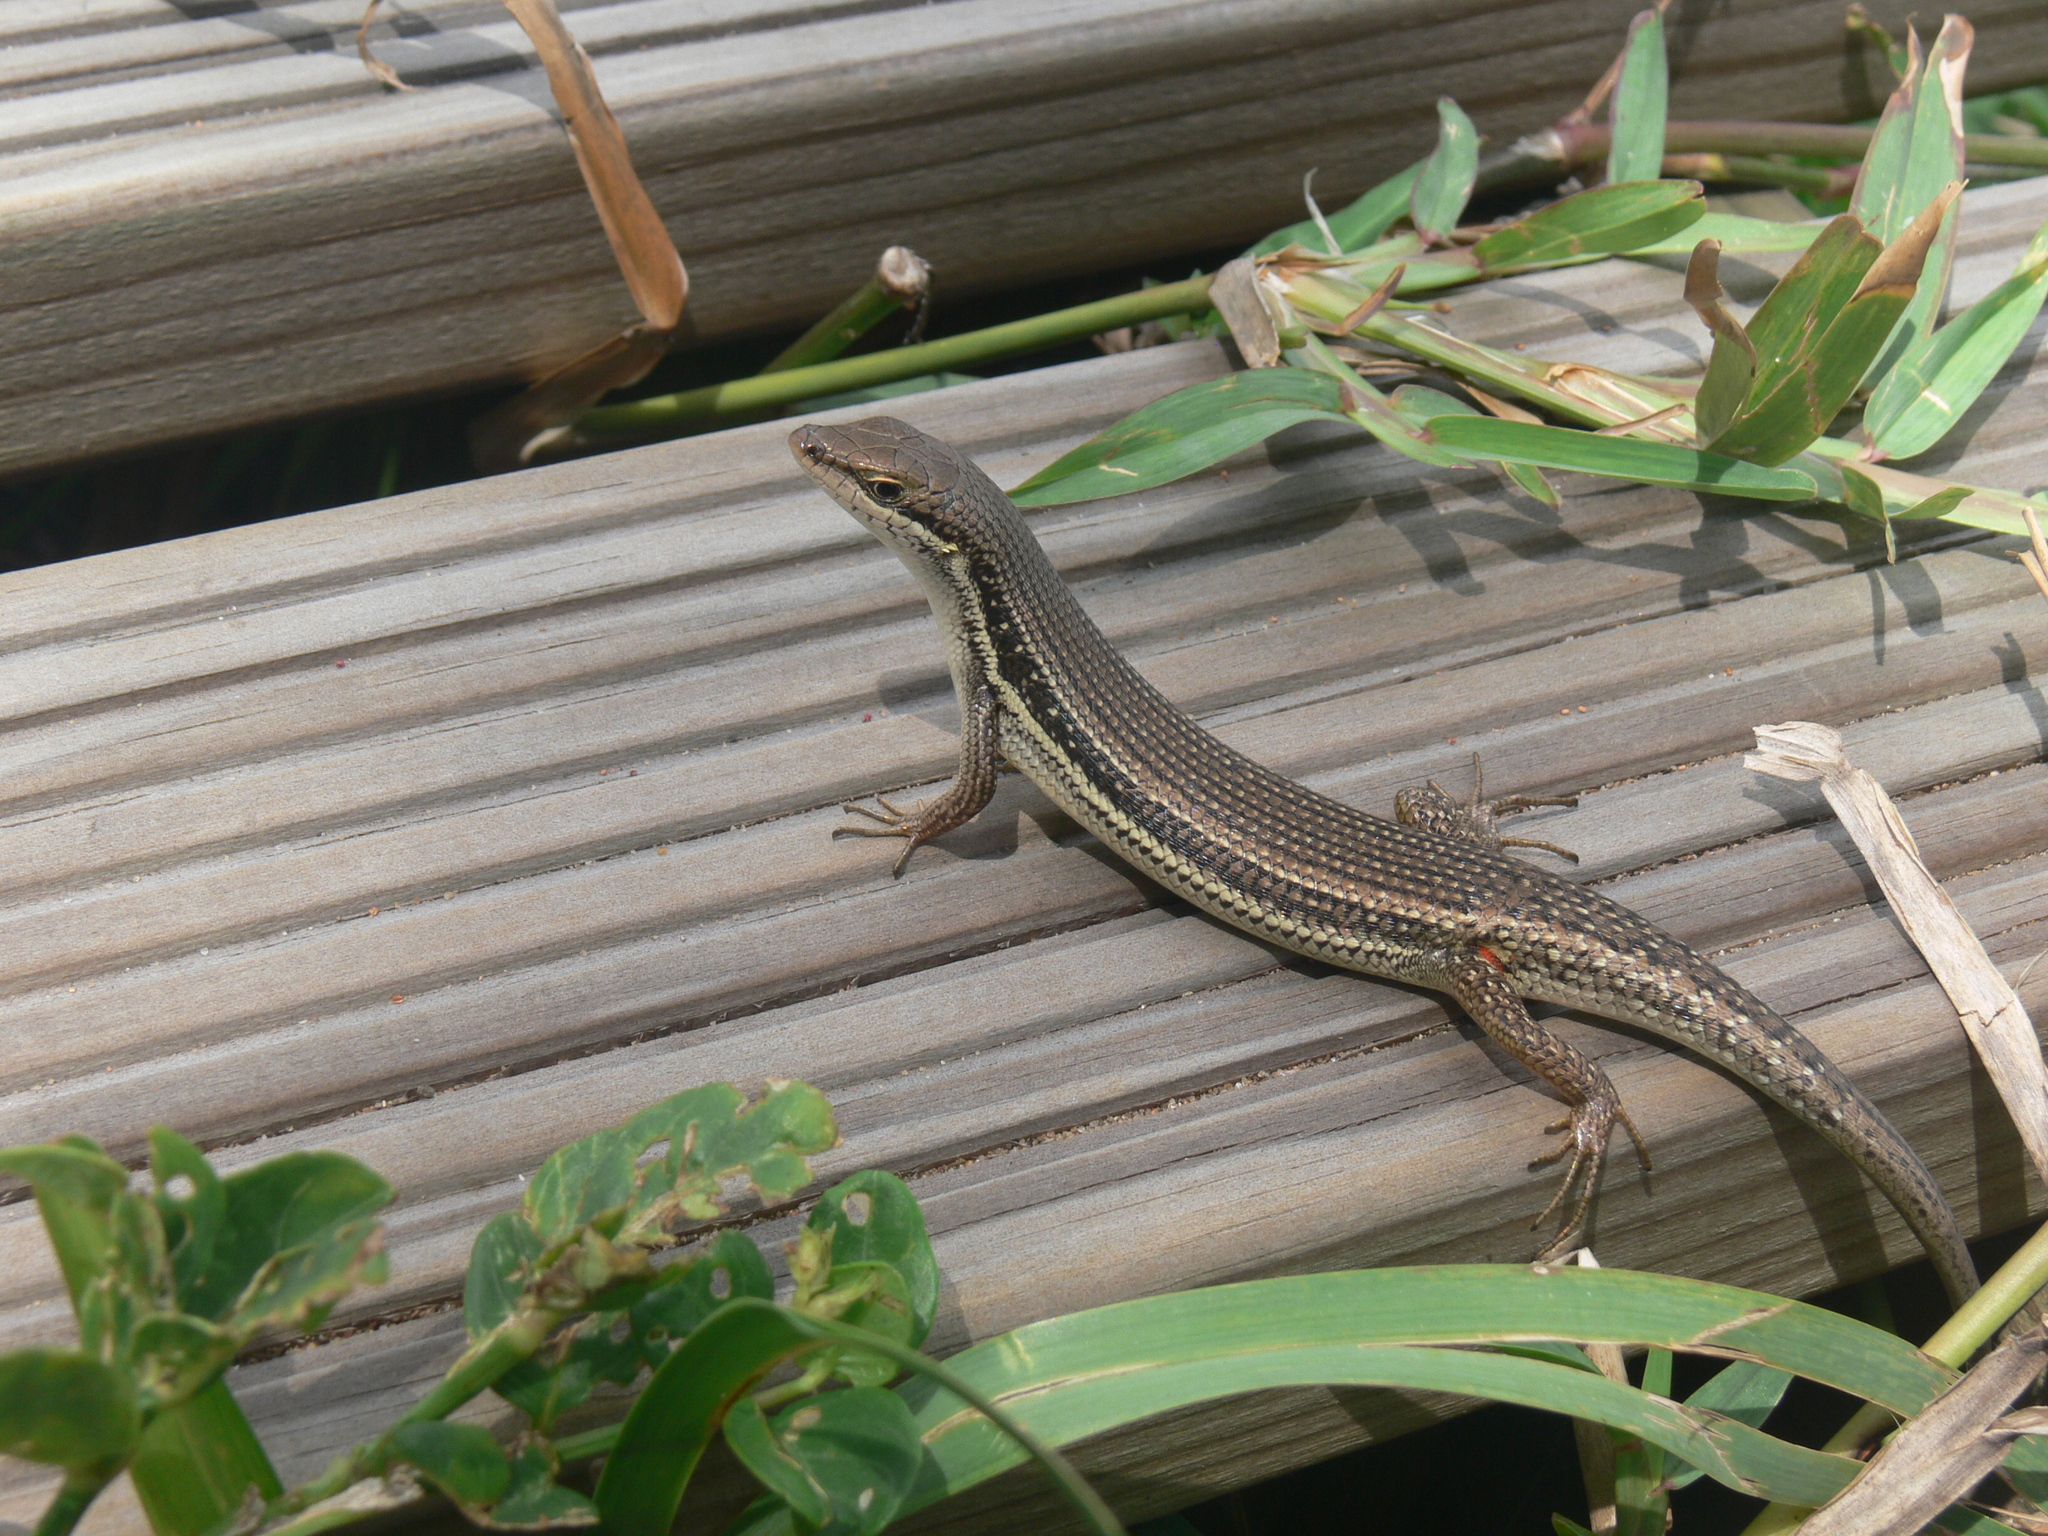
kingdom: Animalia
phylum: Chordata
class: Squamata
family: Scincidae
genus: Trachylepis
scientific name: Trachylepis depressa
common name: Eastern coastal skink
